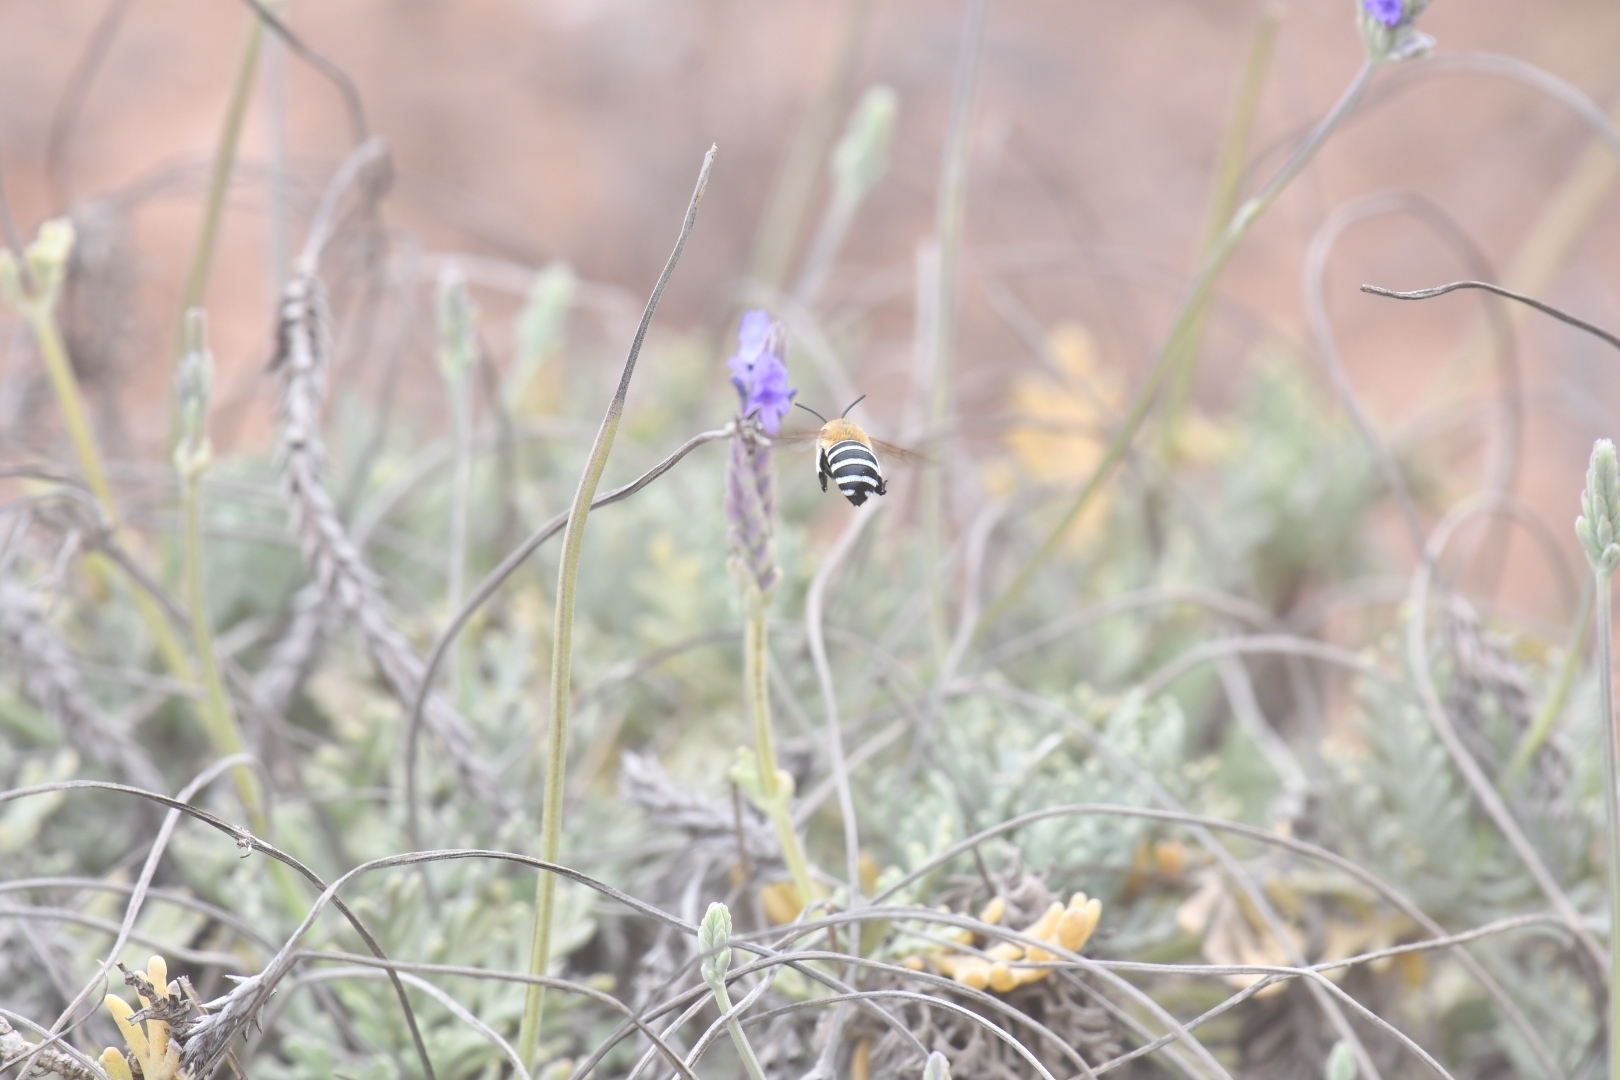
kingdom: Animalia
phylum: Arthropoda
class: Insecta
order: Hymenoptera
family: Apidae
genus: Amegilla
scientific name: Amegilla quadrifasciata
